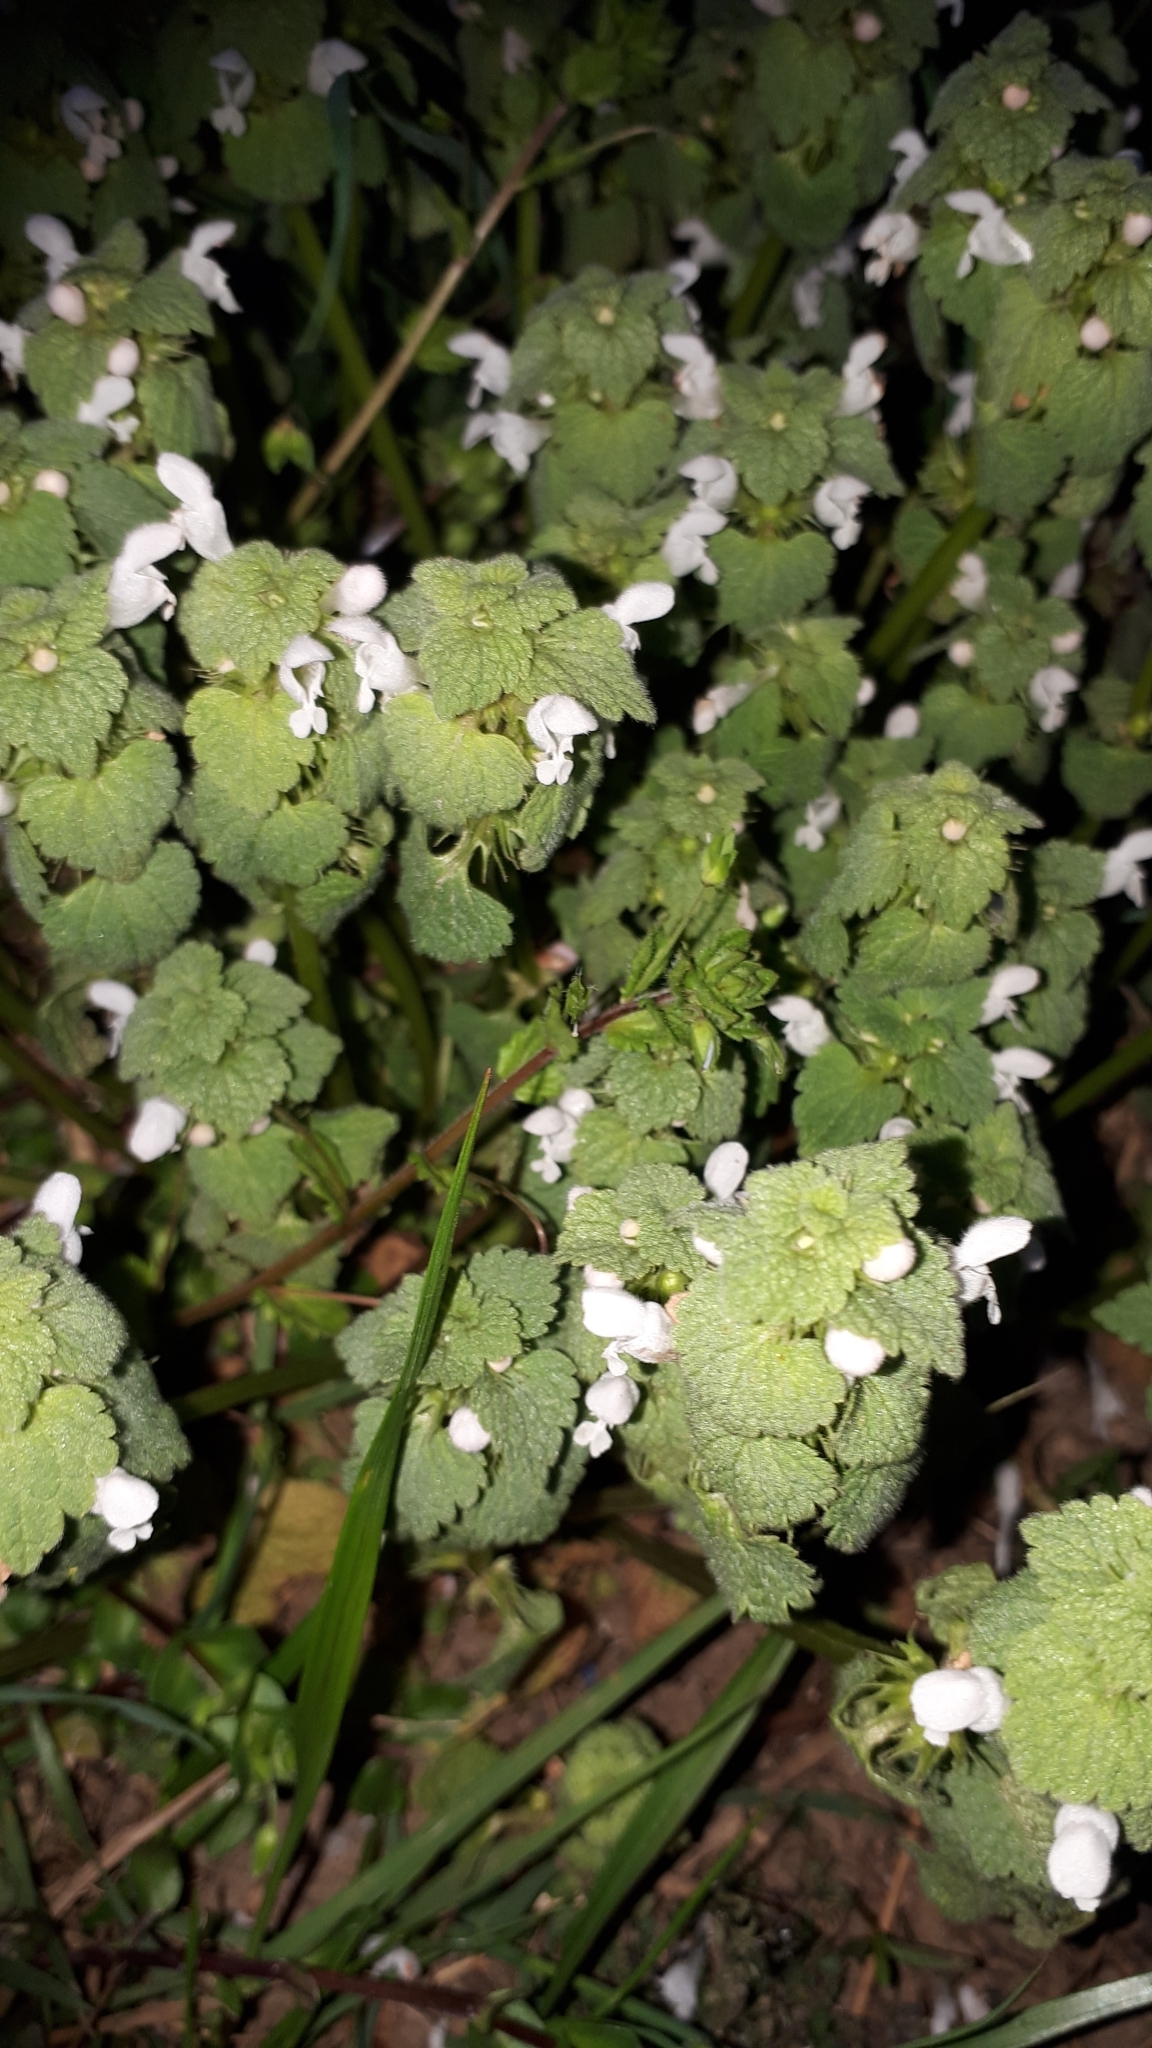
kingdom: Plantae
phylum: Tracheophyta
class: Magnoliopsida
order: Lamiales
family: Lamiaceae
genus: Lamium
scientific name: Lamium purpureum
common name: Red dead-nettle
